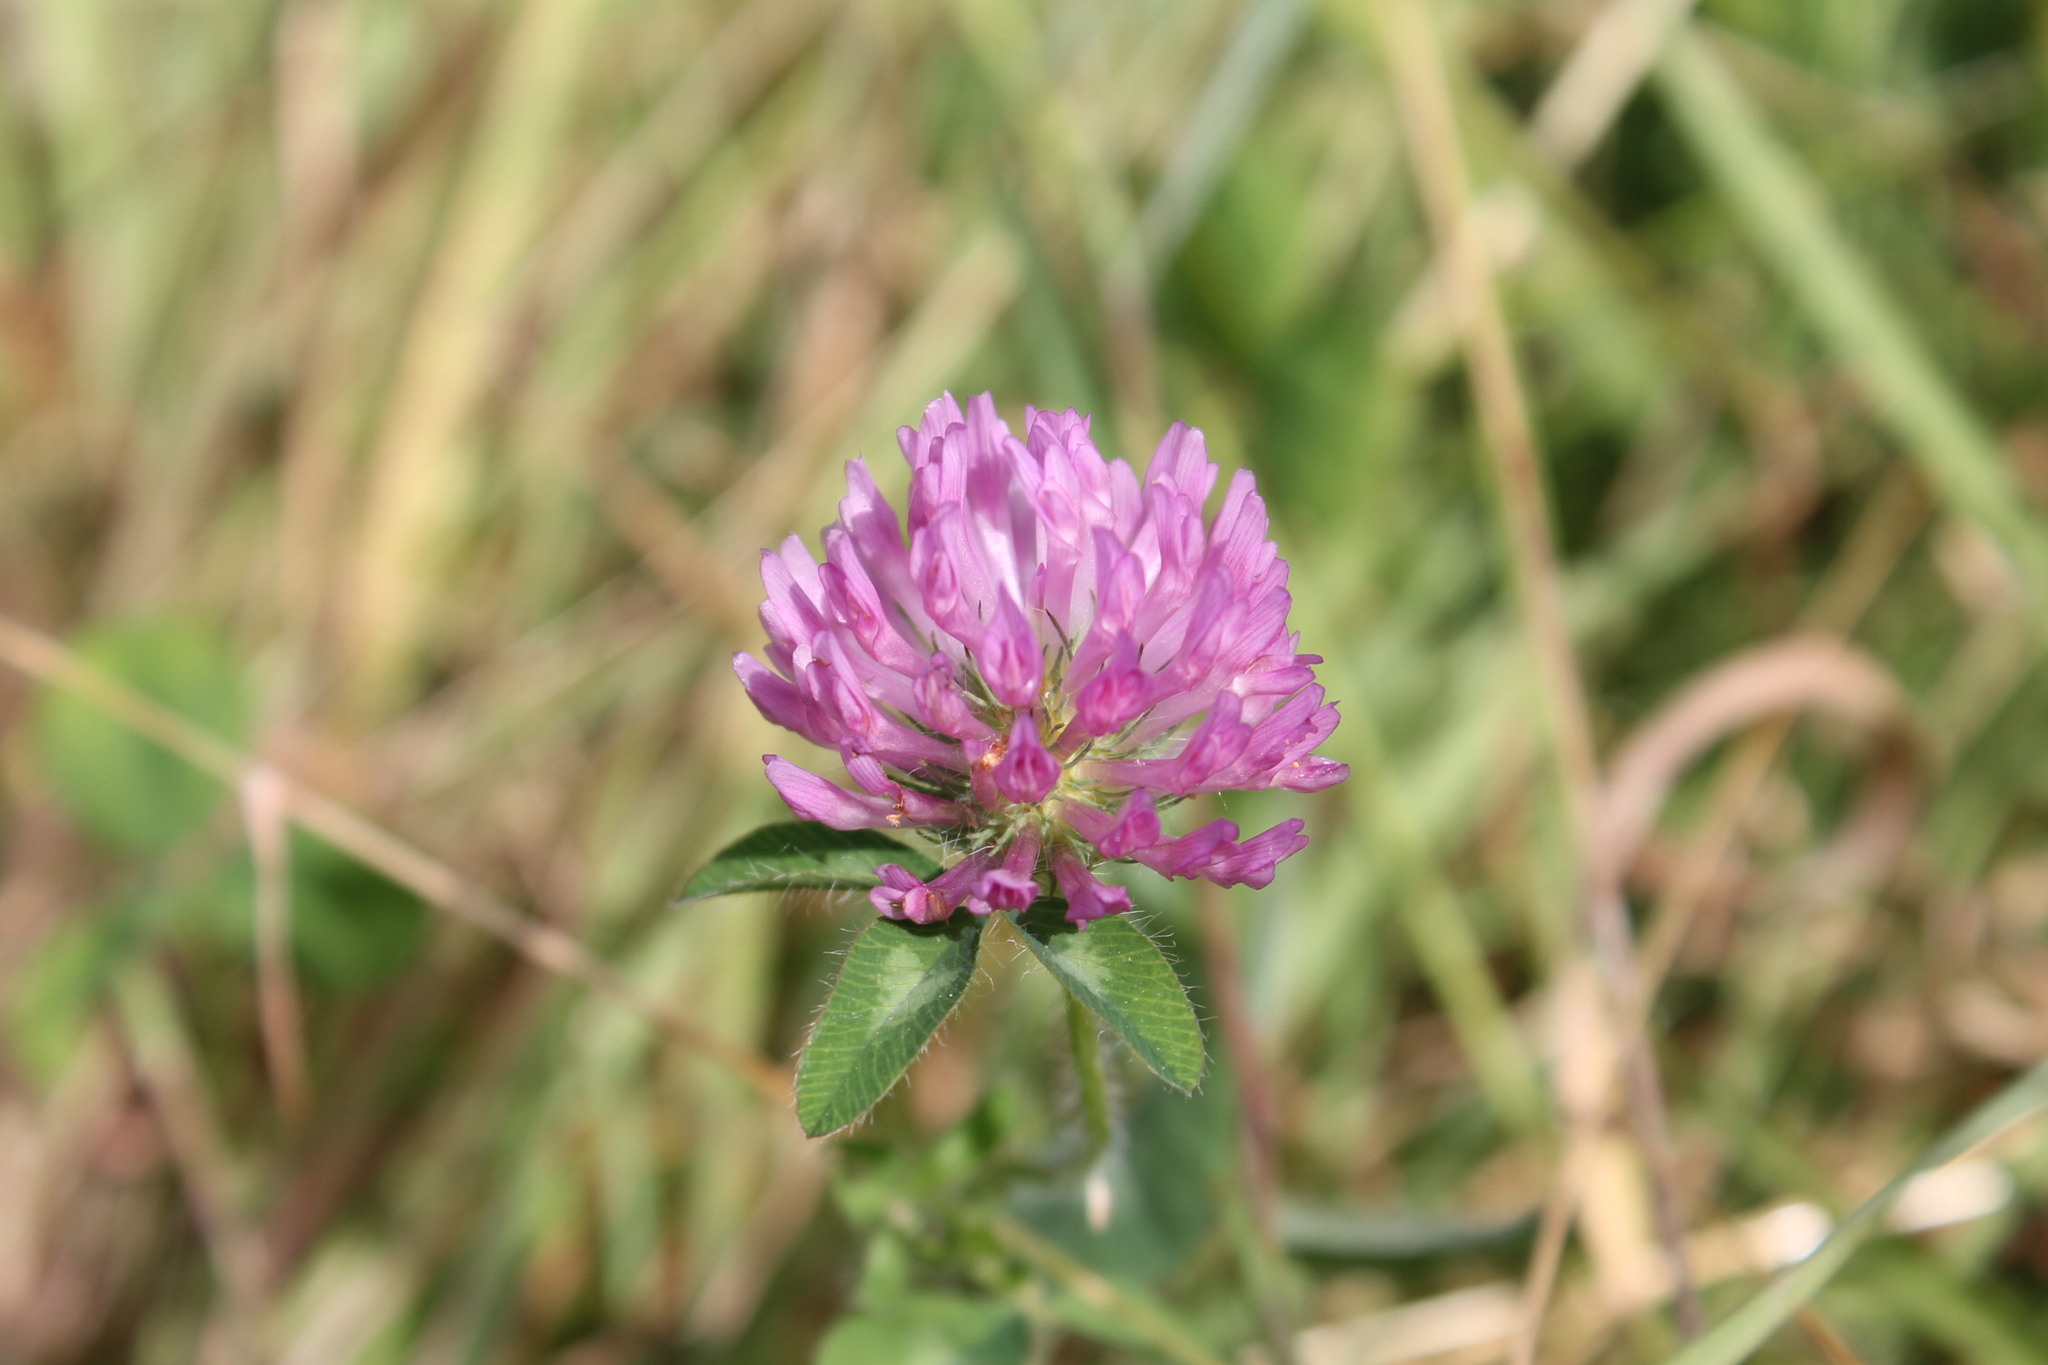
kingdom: Plantae
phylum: Tracheophyta
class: Magnoliopsida
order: Fabales
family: Fabaceae
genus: Trifolium
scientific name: Trifolium pratense
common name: Red clover
